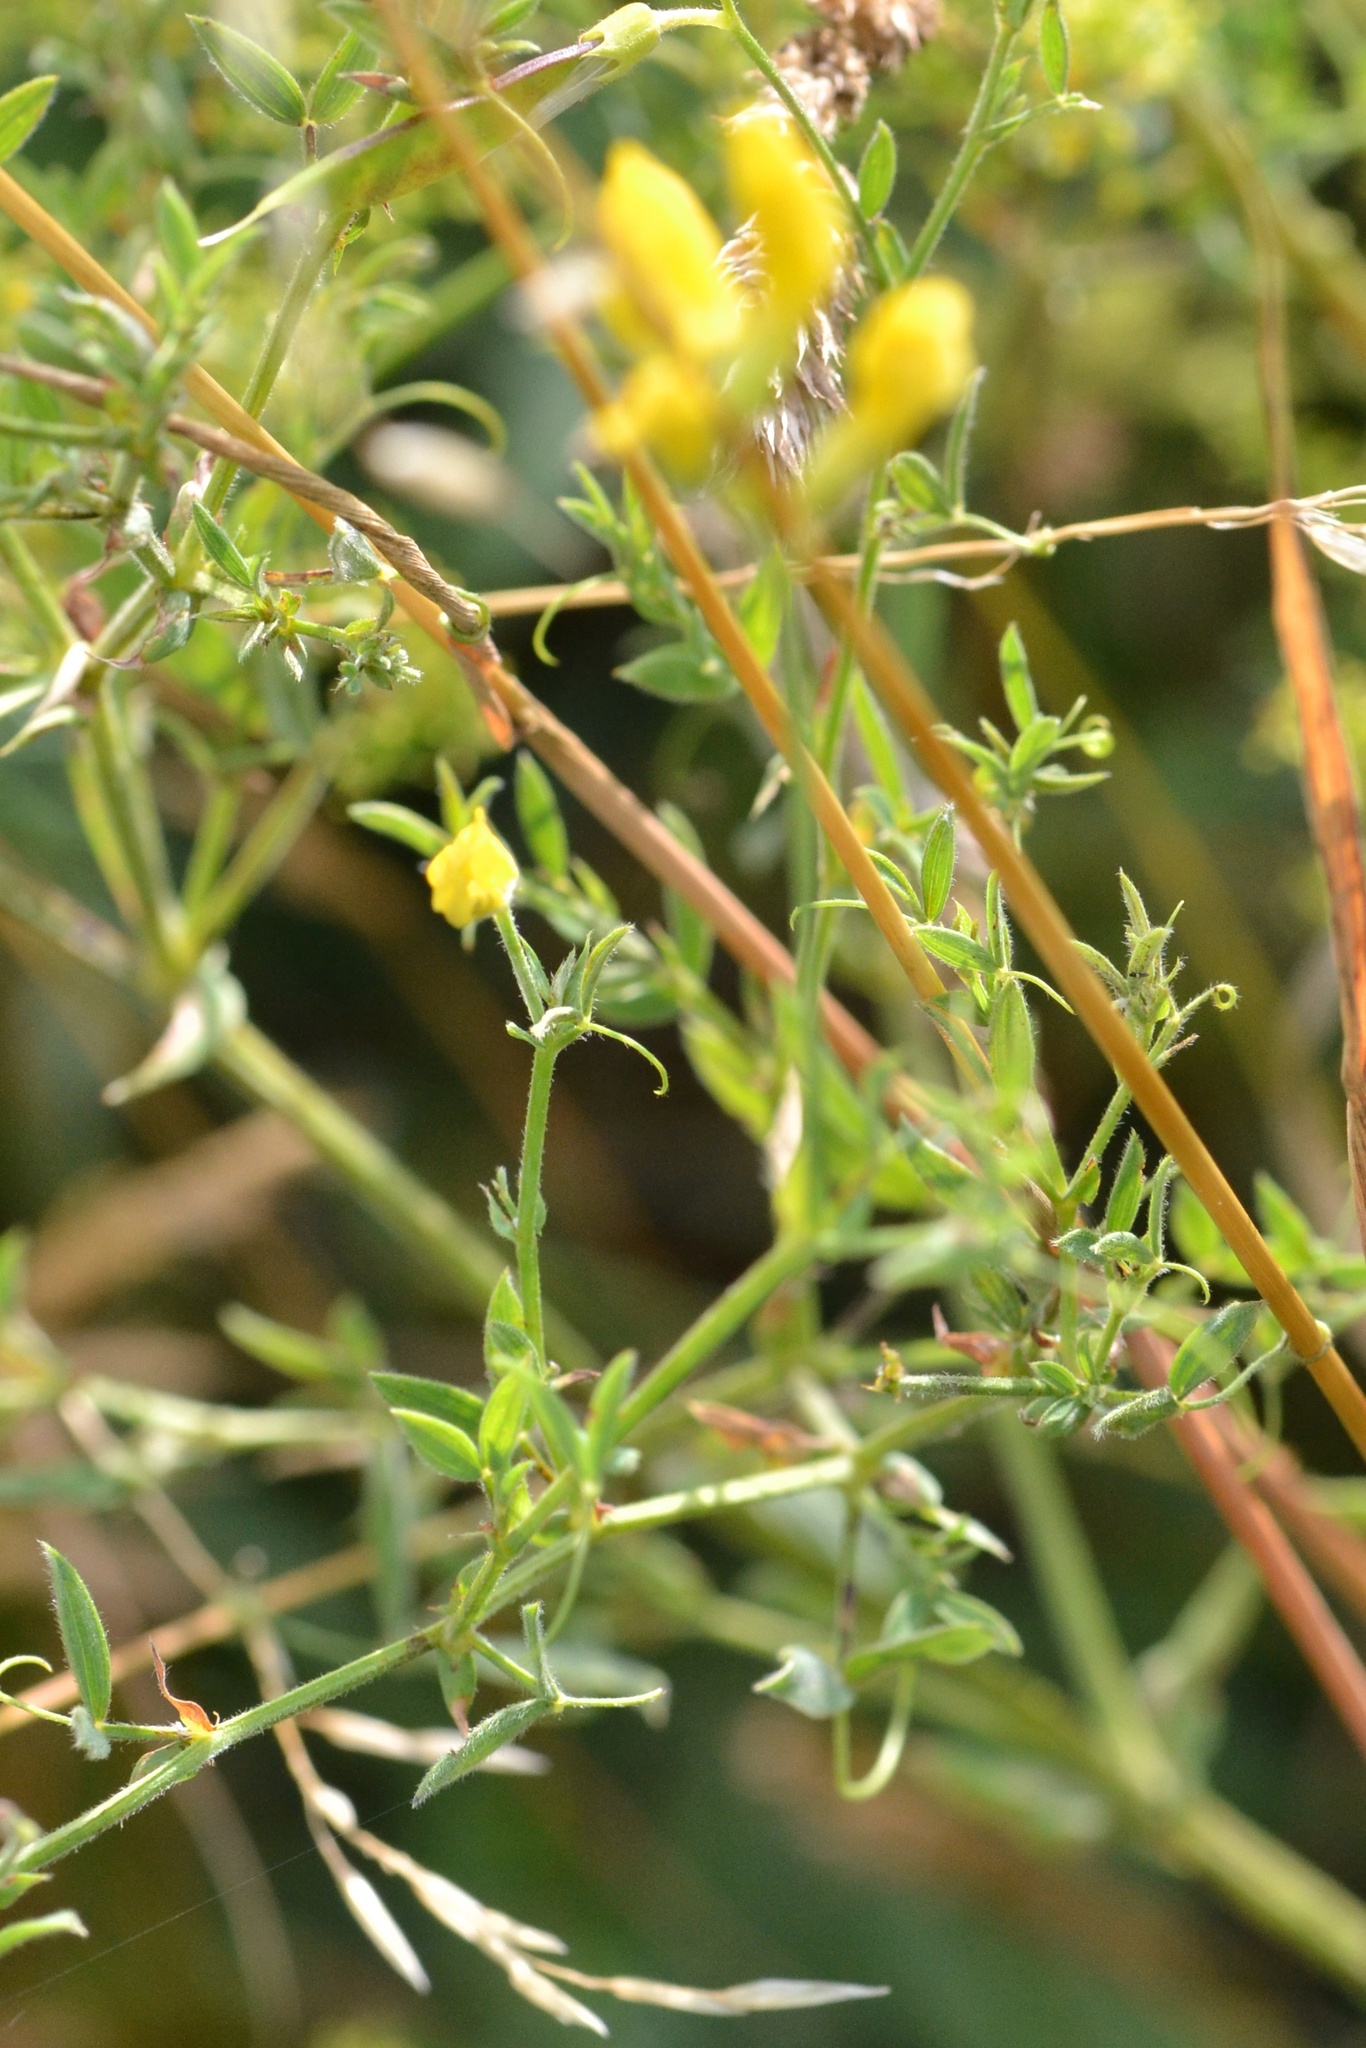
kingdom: Plantae
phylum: Tracheophyta
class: Magnoliopsida
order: Fabales
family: Fabaceae
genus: Lathyrus
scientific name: Lathyrus pratensis
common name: Meadow vetchling
